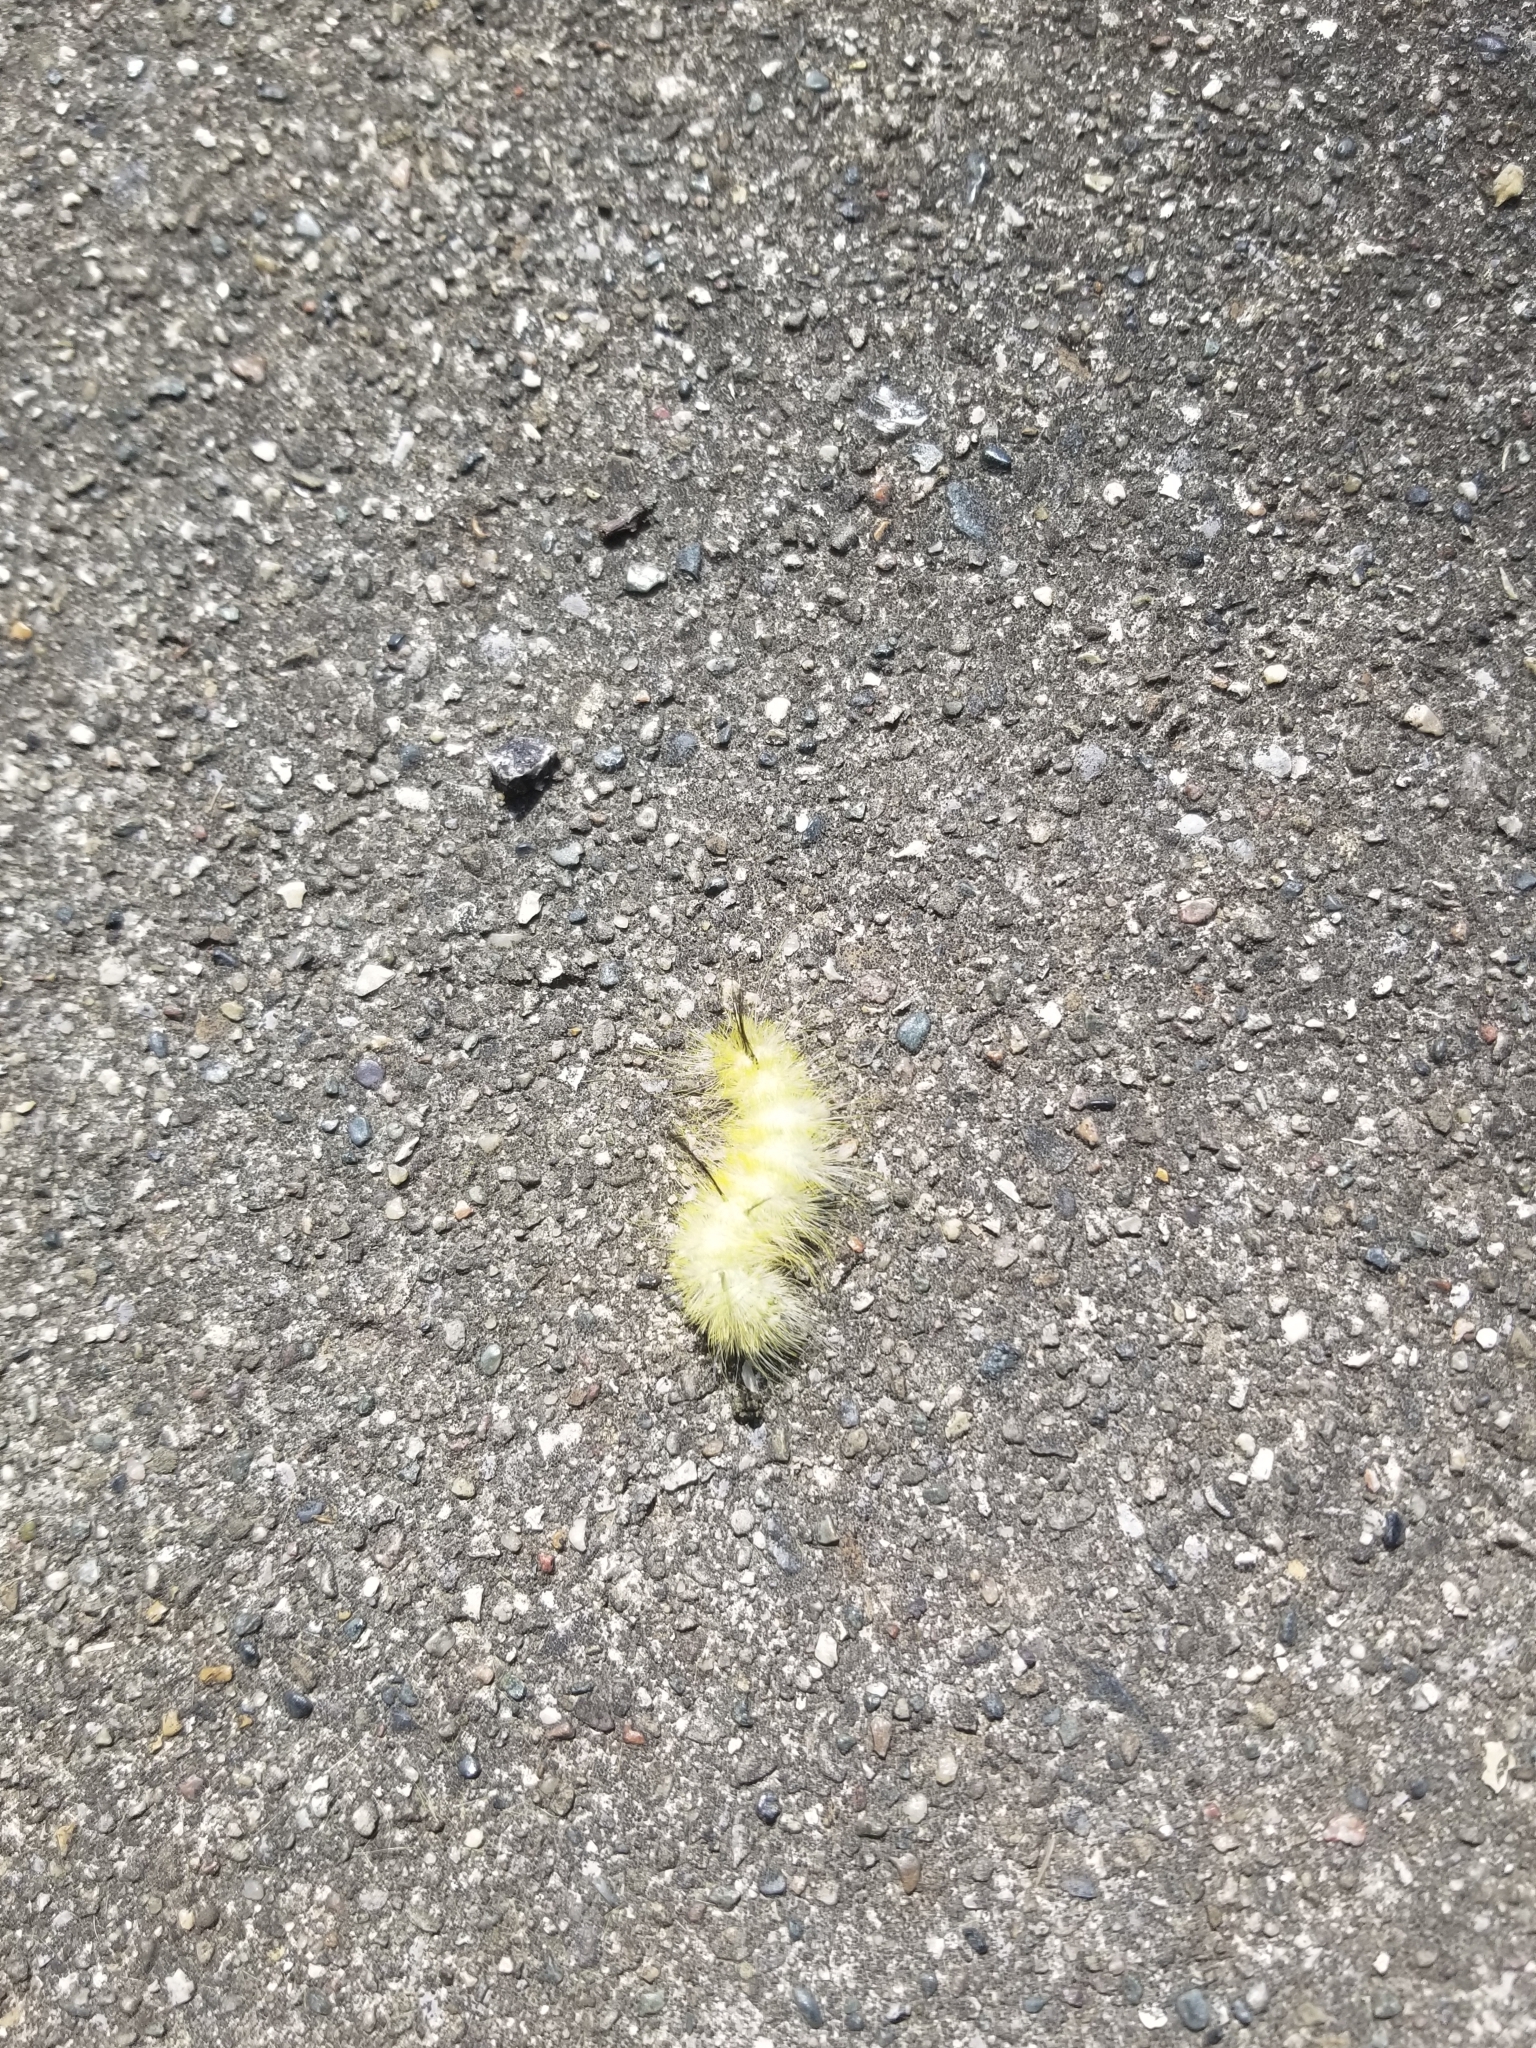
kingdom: Animalia
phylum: Arthropoda
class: Insecta
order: Lepidoptera
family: Noctuidae
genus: Acronicta
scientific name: Acronicta americana
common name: American dagger
